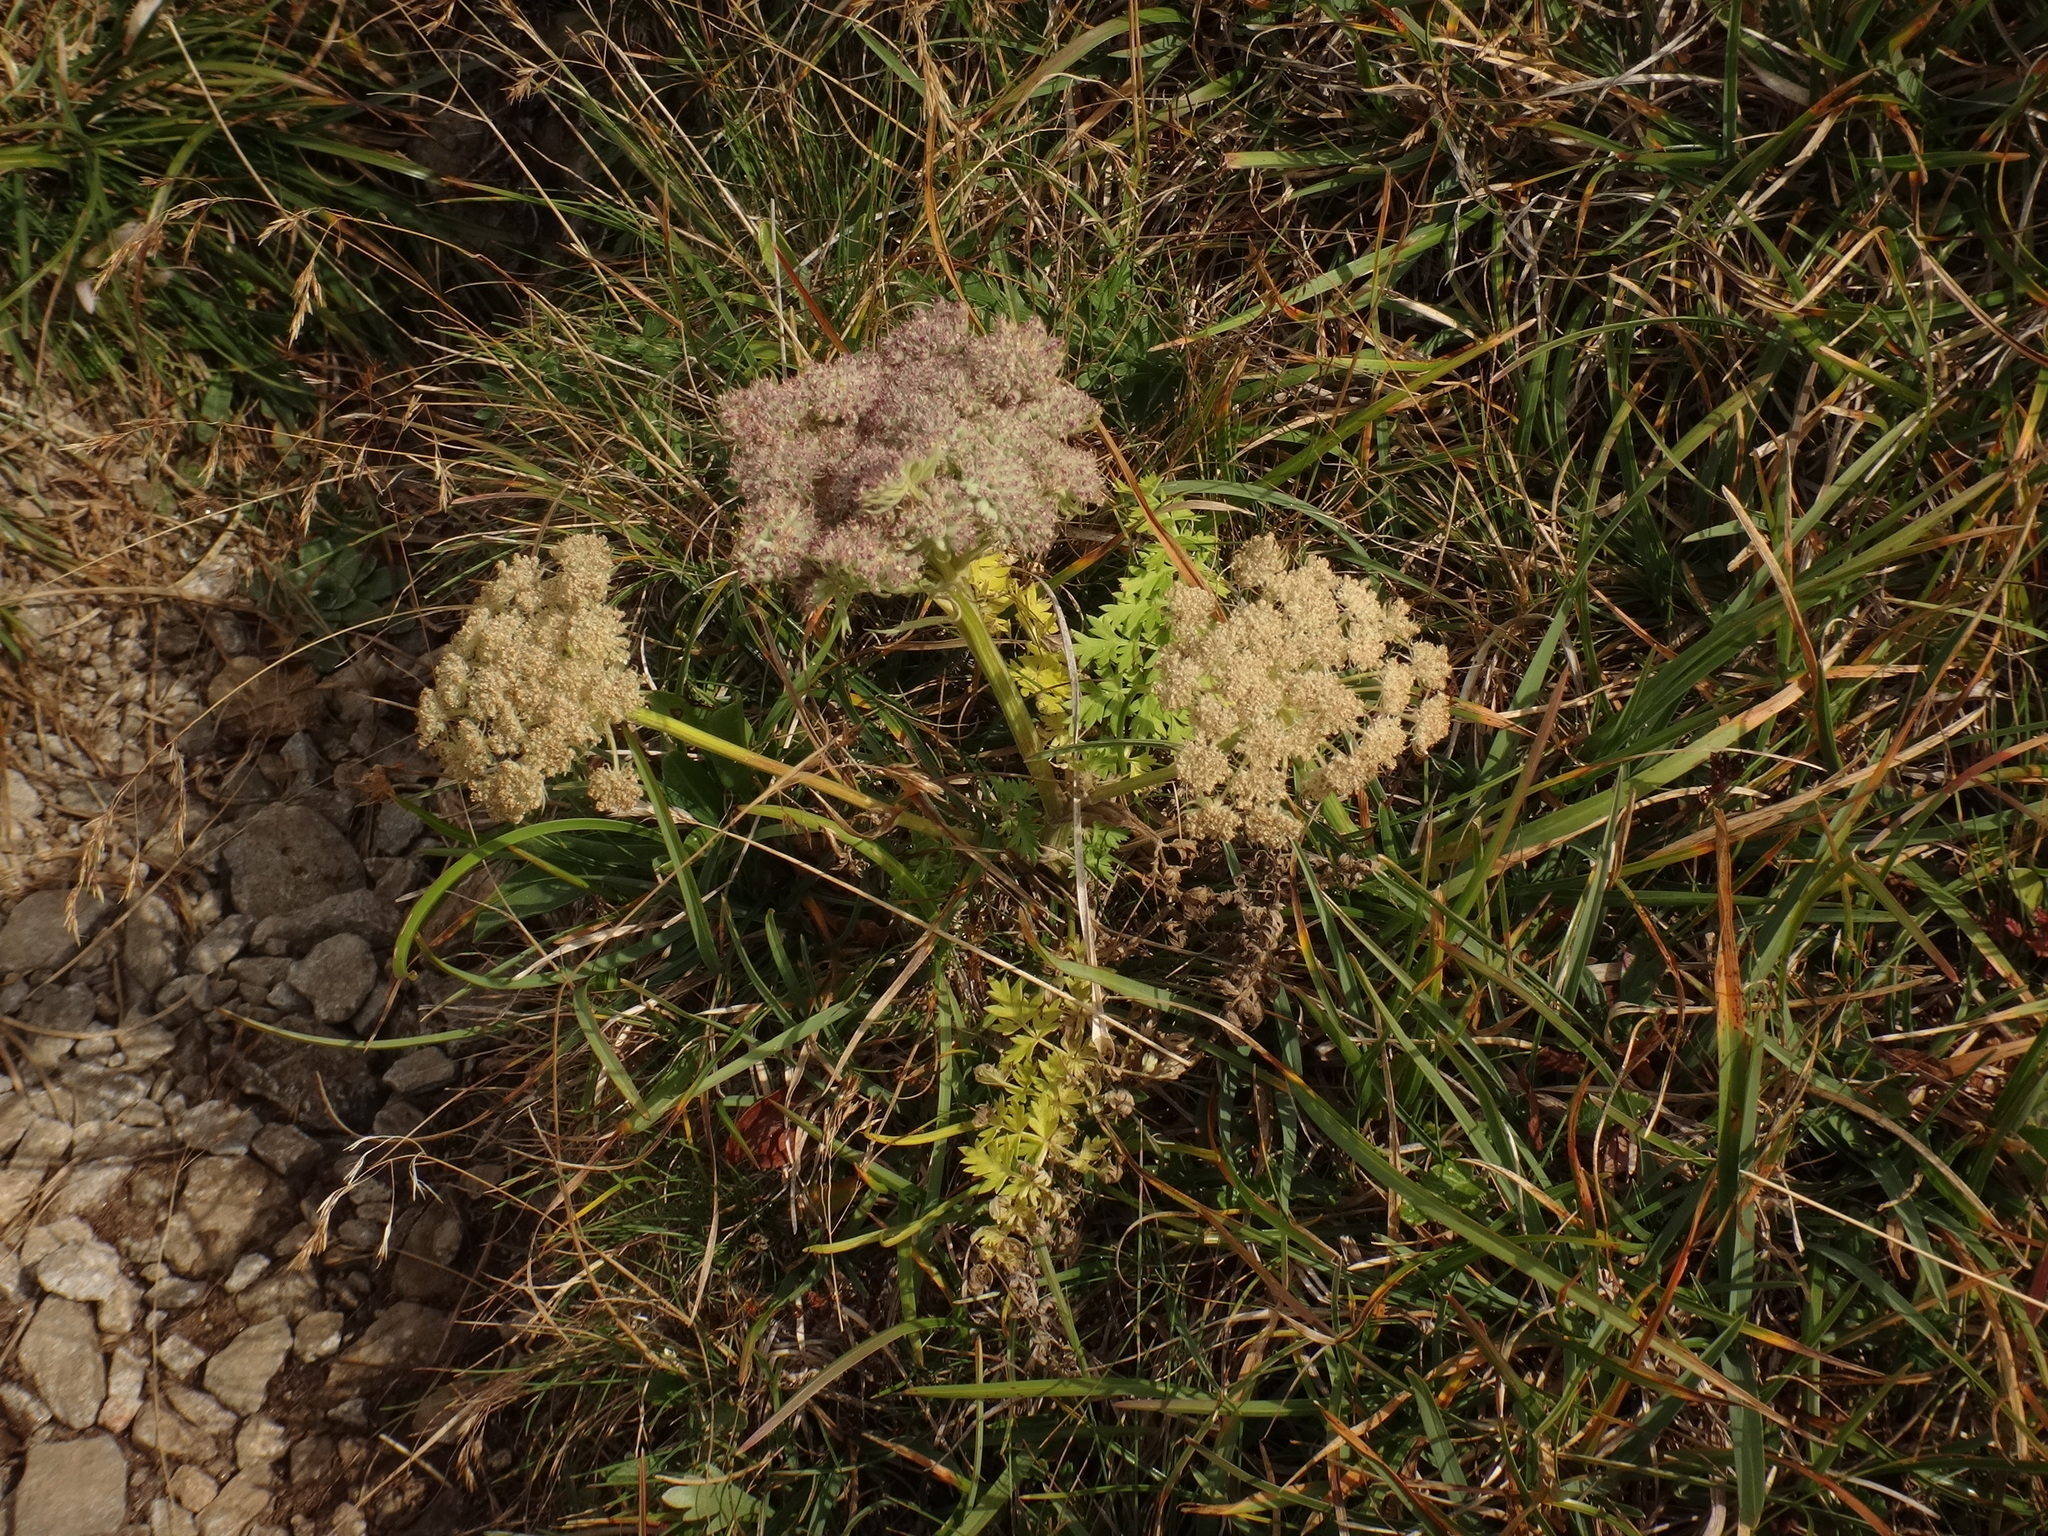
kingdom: Plantae
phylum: Tracheophyta
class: Magnoliopsida
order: Apiales
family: Apiaceae
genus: Pachypleurum
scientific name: Pachypleurum mutellinoides
